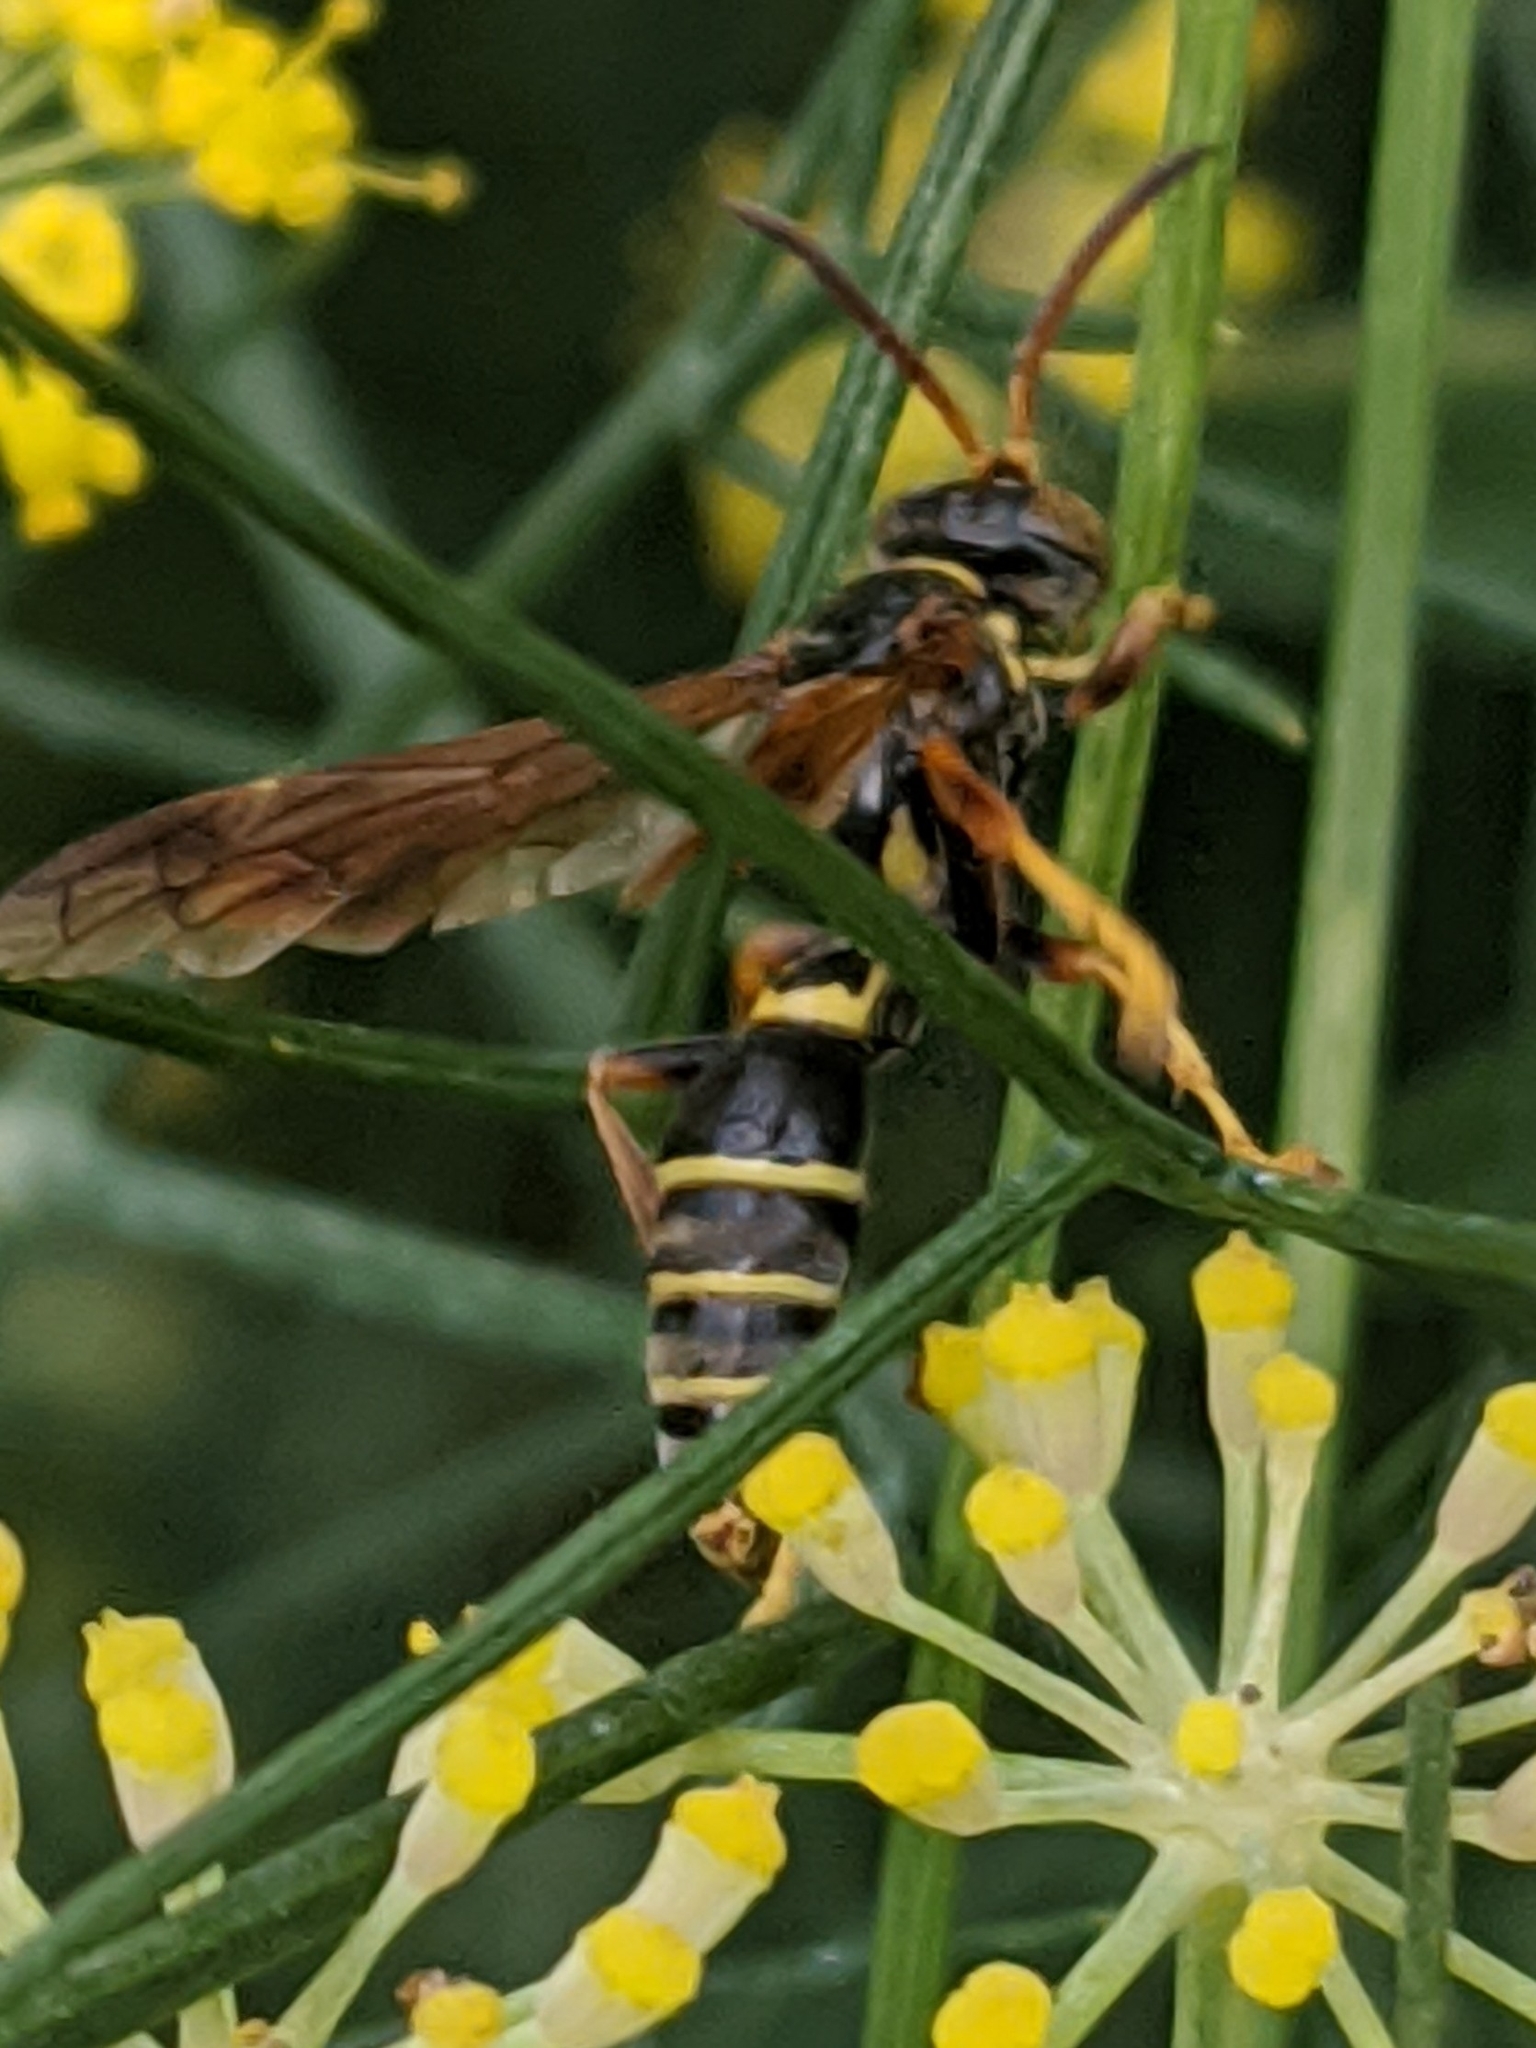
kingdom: Animalia
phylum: Arthropoda
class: Insecta
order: Hymenoptera
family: Crabronidae
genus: Saygorytes
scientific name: Saygorytes phaleratus
